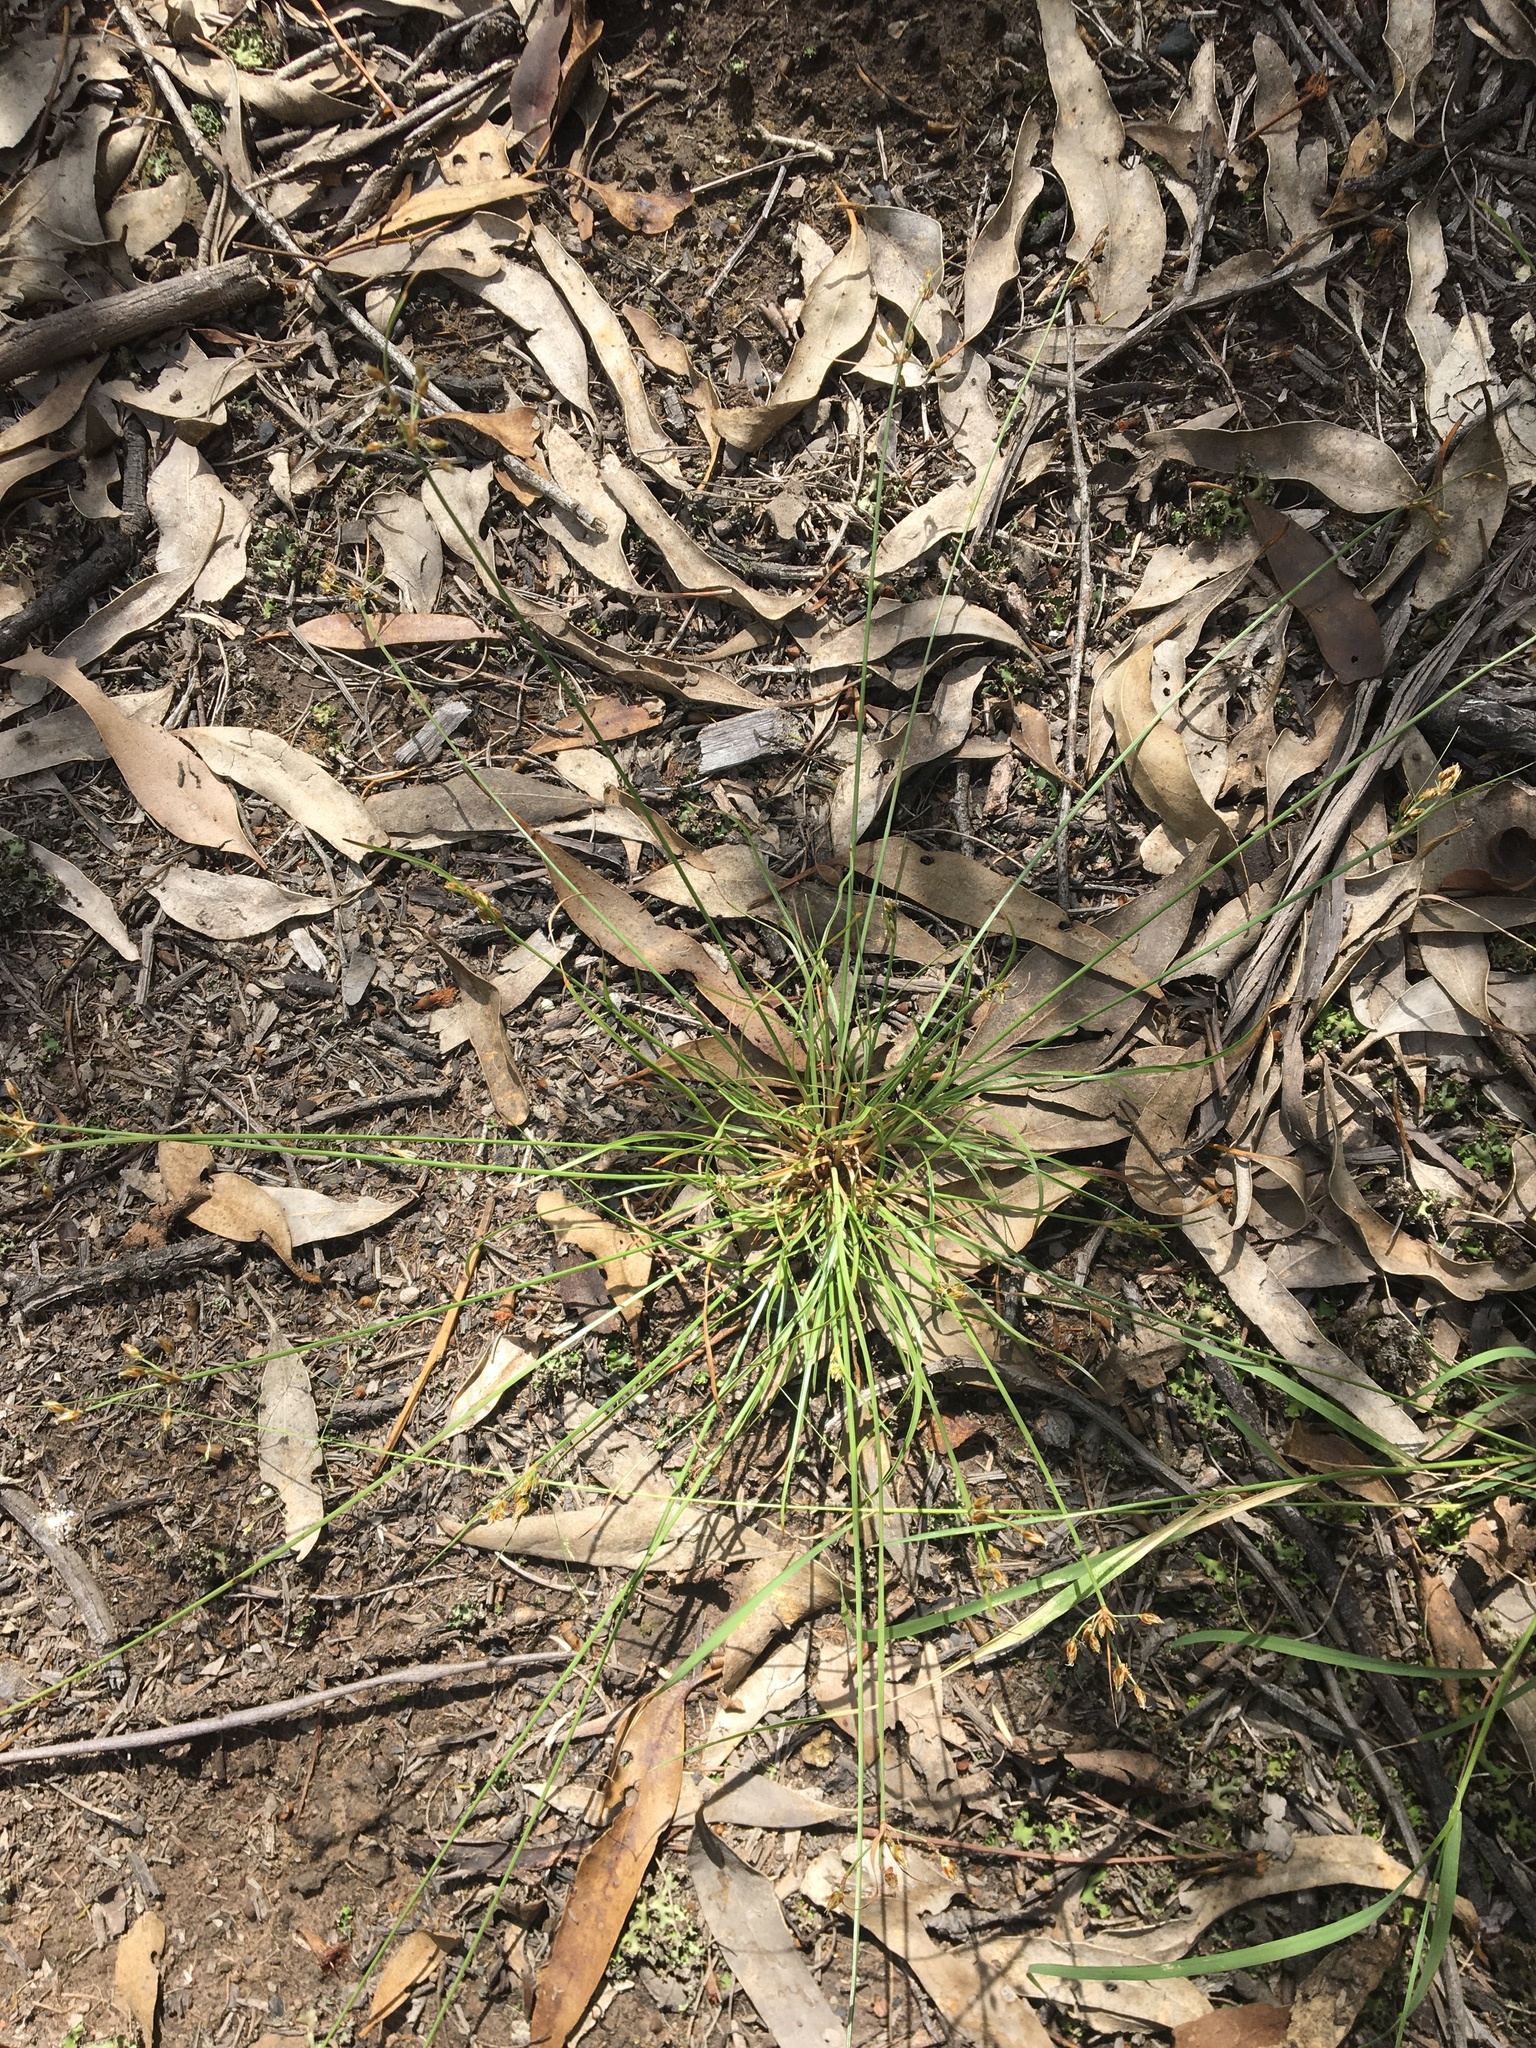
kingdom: Plantae
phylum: Tracheophyta
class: Liliopsida
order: Poales
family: Cyperaceae
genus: Fimbristylis
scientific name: Fimbristylis dichotoma
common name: Forked fimbry
